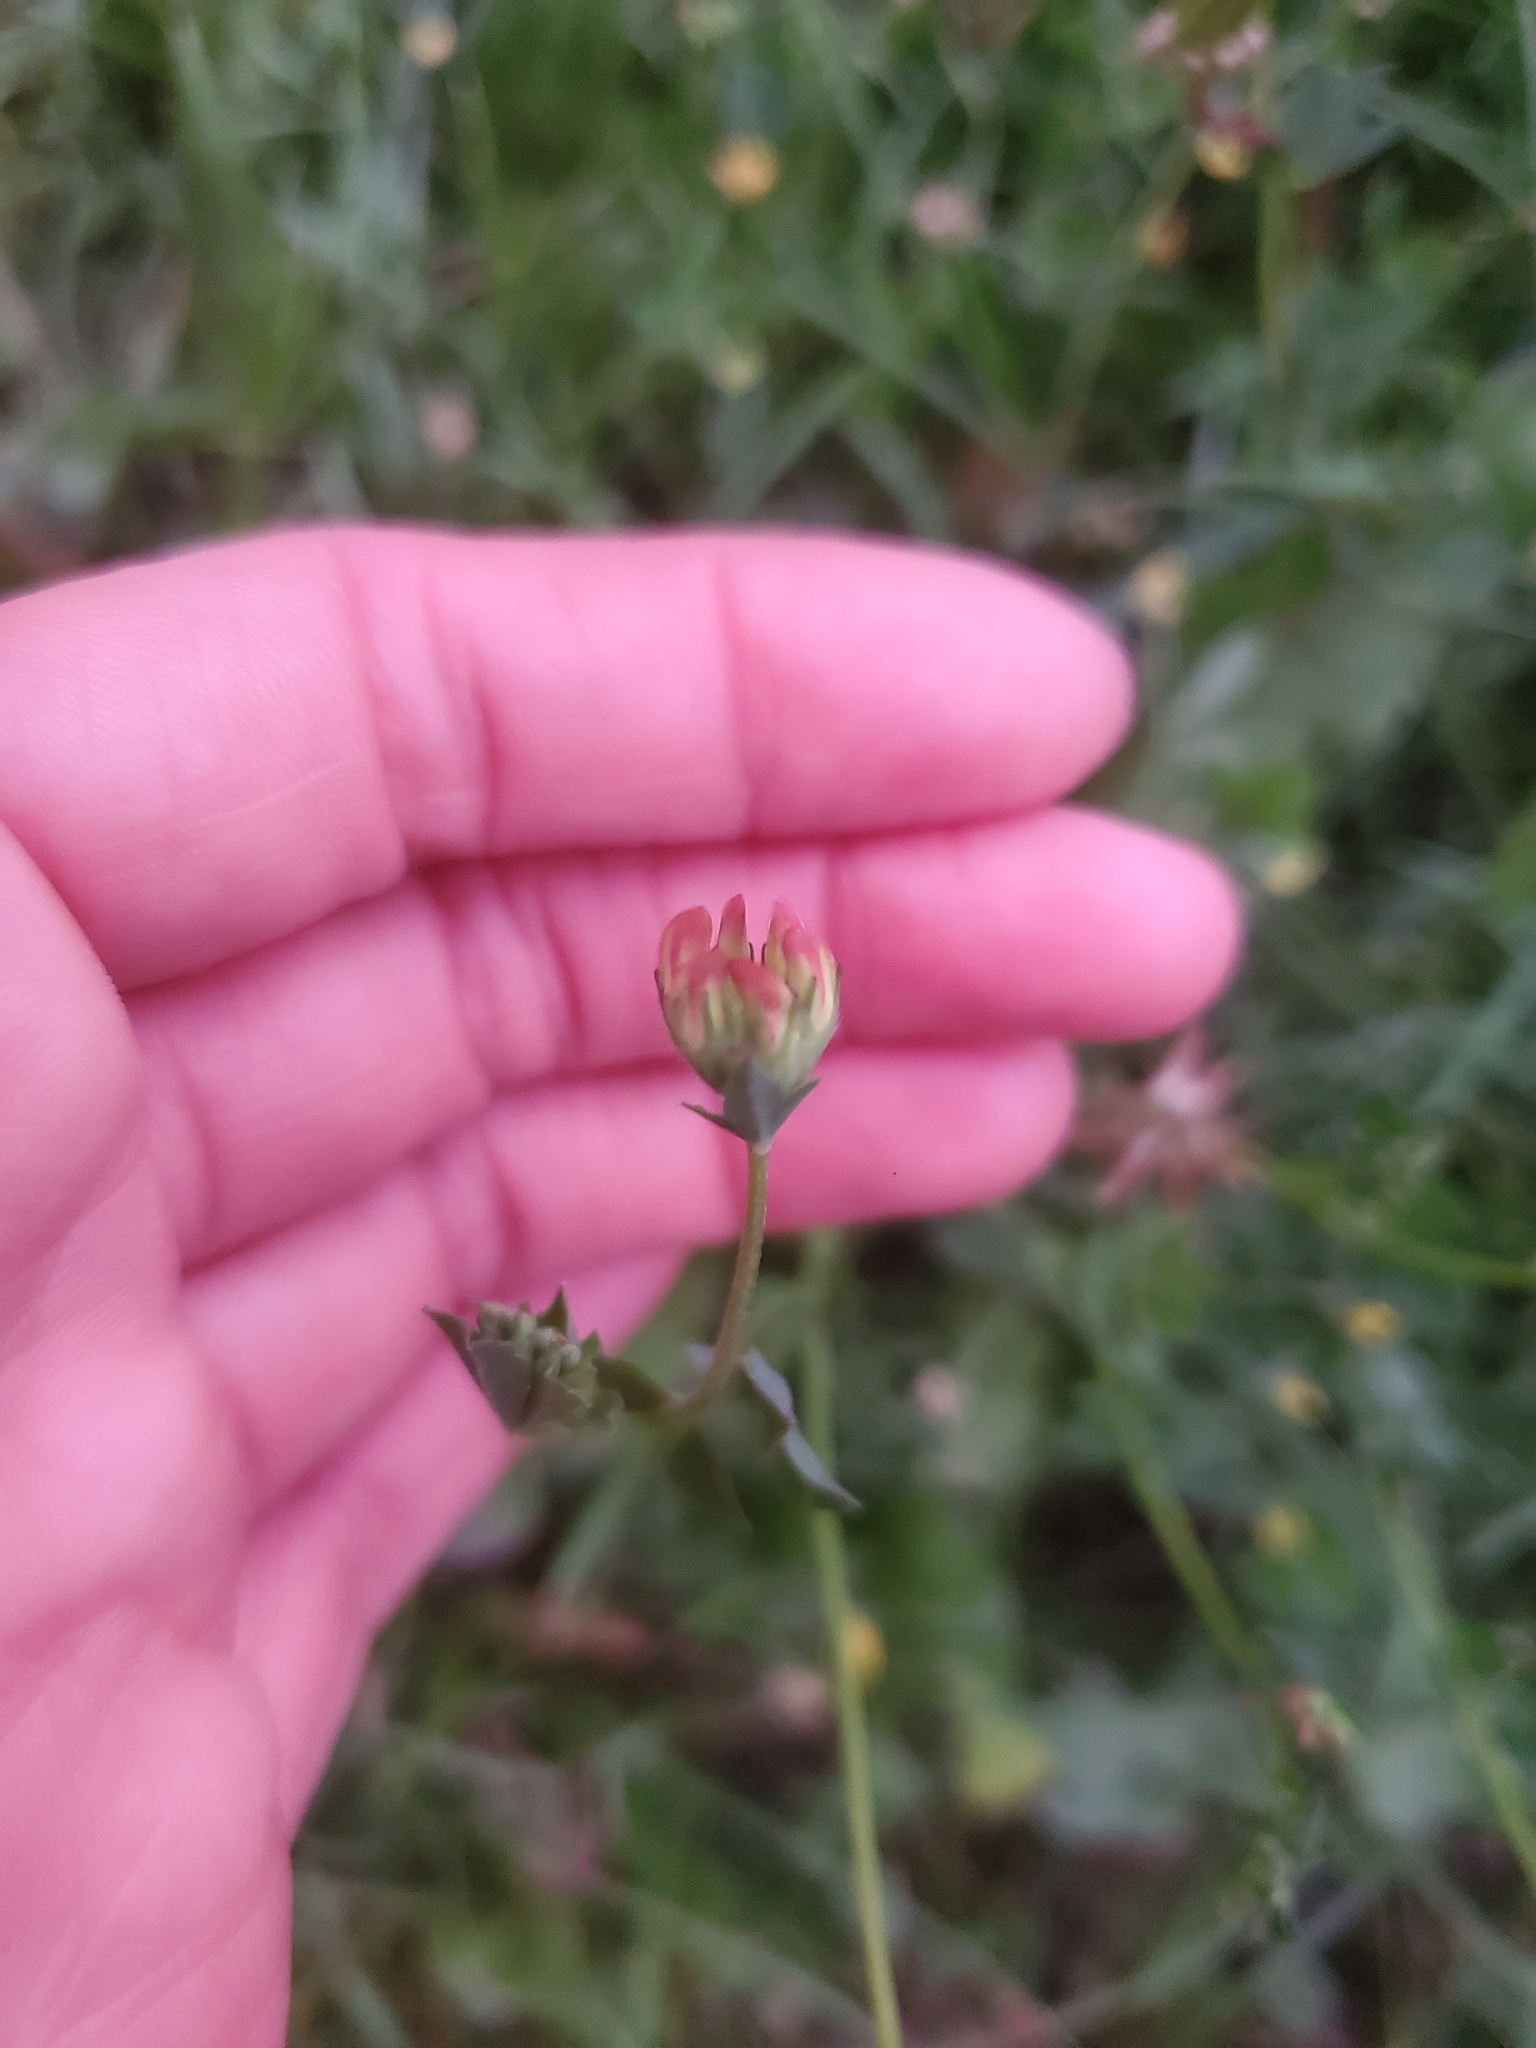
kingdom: Plantae
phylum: Tracheophyta
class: Magnoliopsida
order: Fabales
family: Fabaceae
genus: Lotus
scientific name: Lotus corniculatus
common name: Common bird's-foot-trefoil
